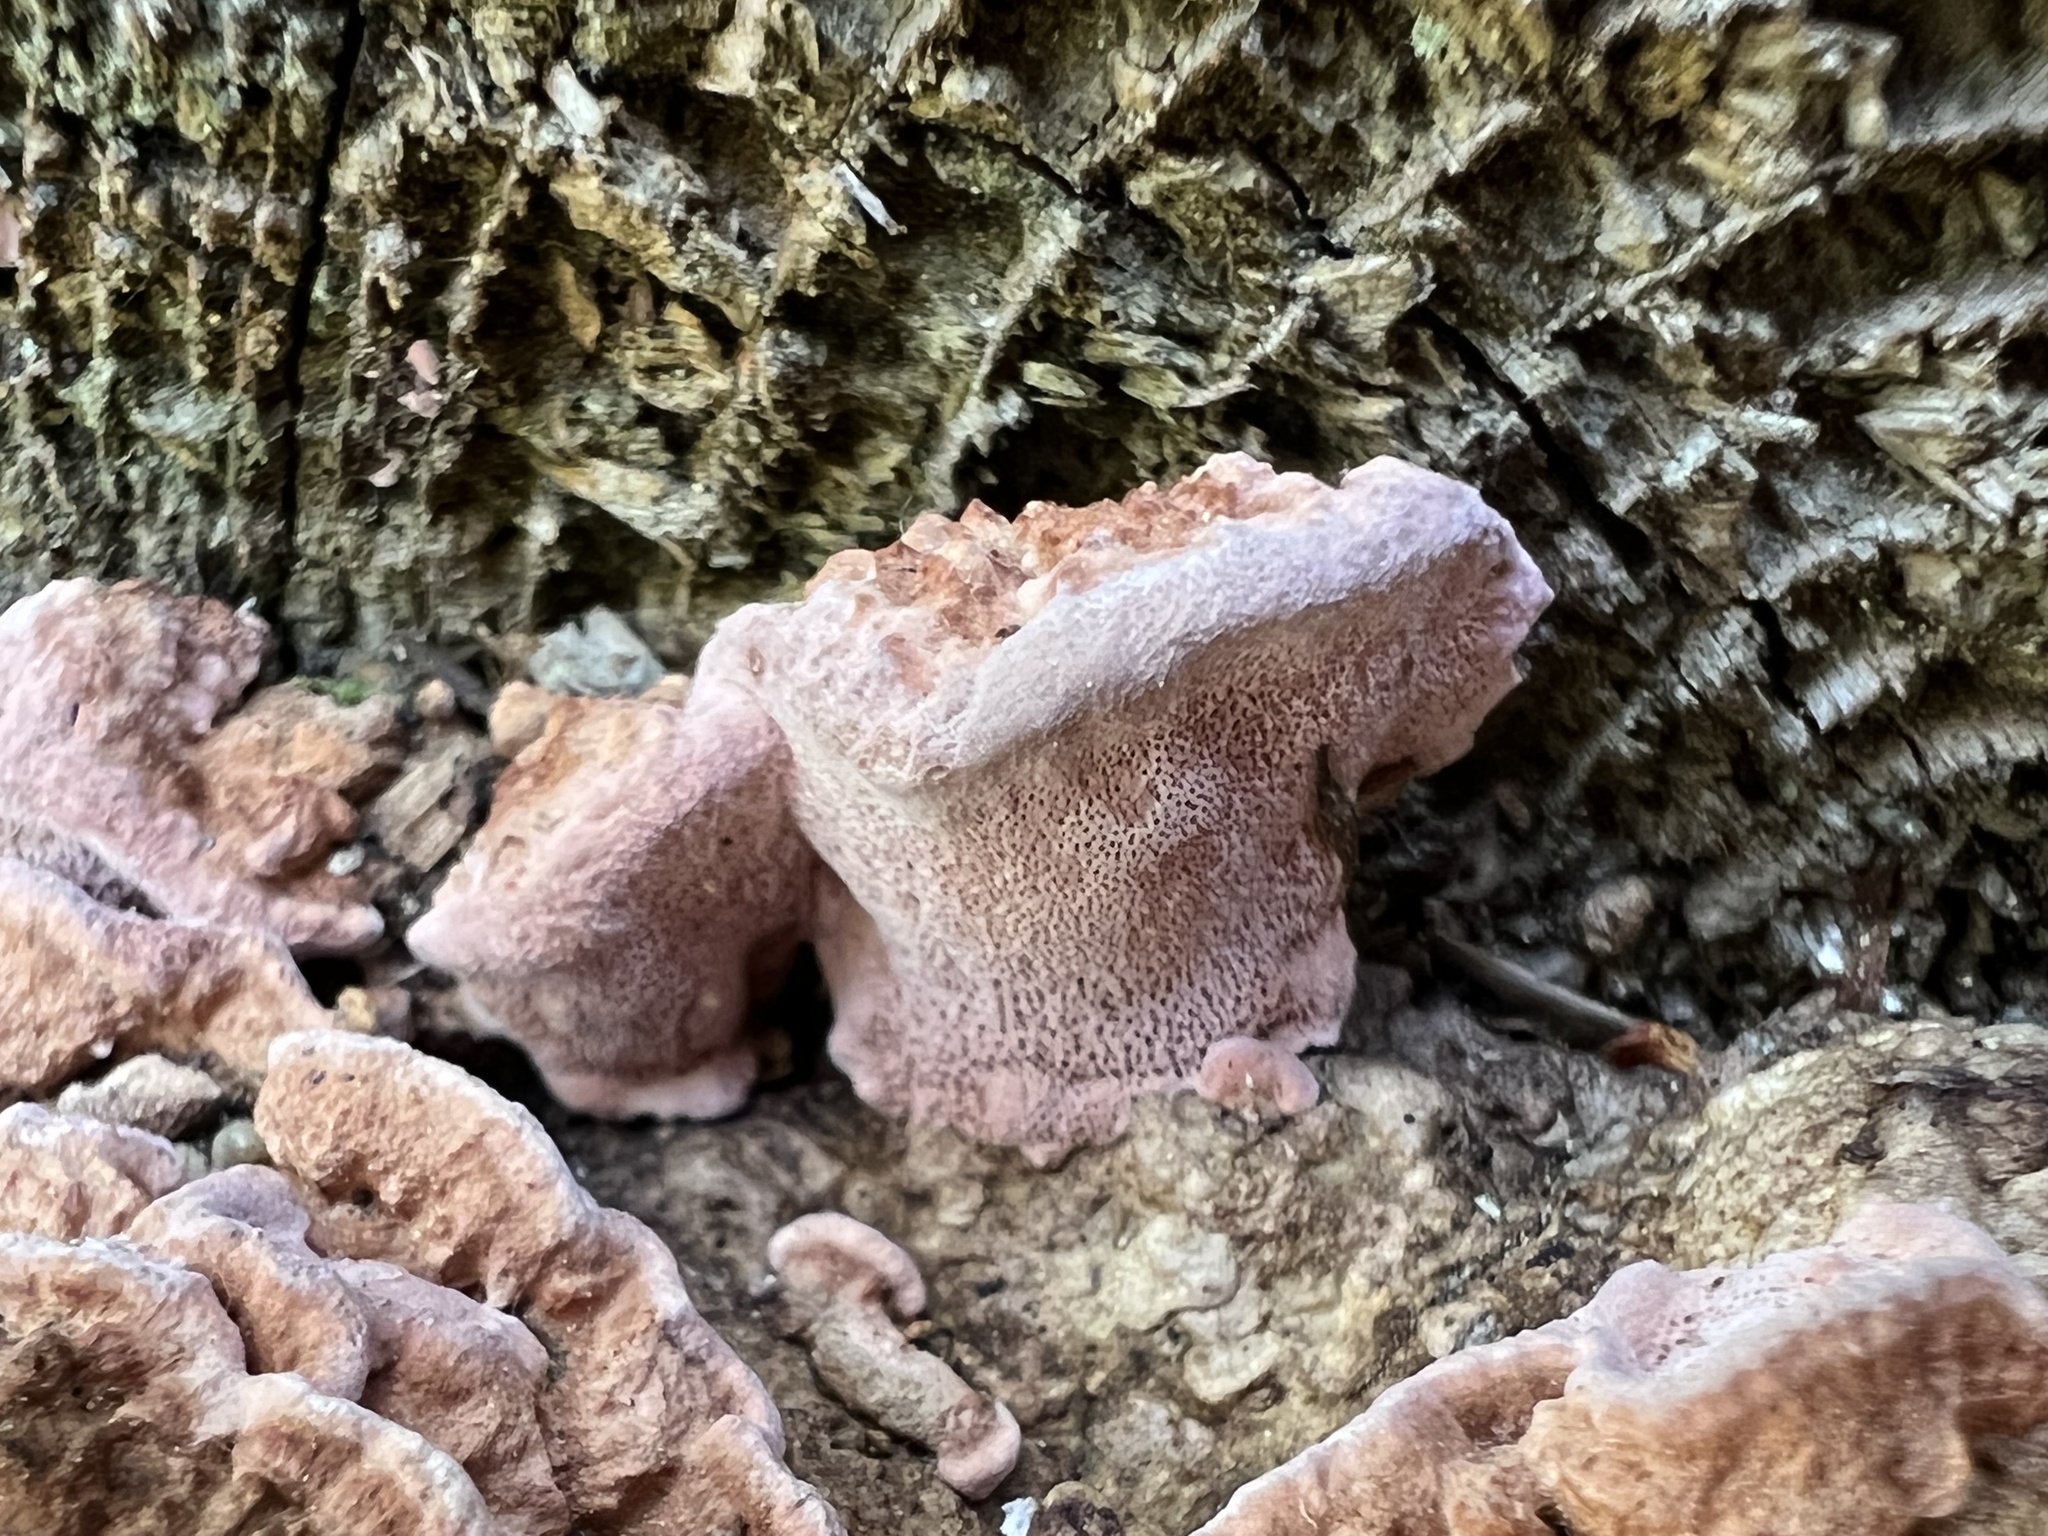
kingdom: Fungi
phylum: Basidiomycota
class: Agaricomycetes
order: Polyporales
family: Fomitopsidaceae
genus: Rhodofomes
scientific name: Rhodofomes cajanderi
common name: Rosy conk
